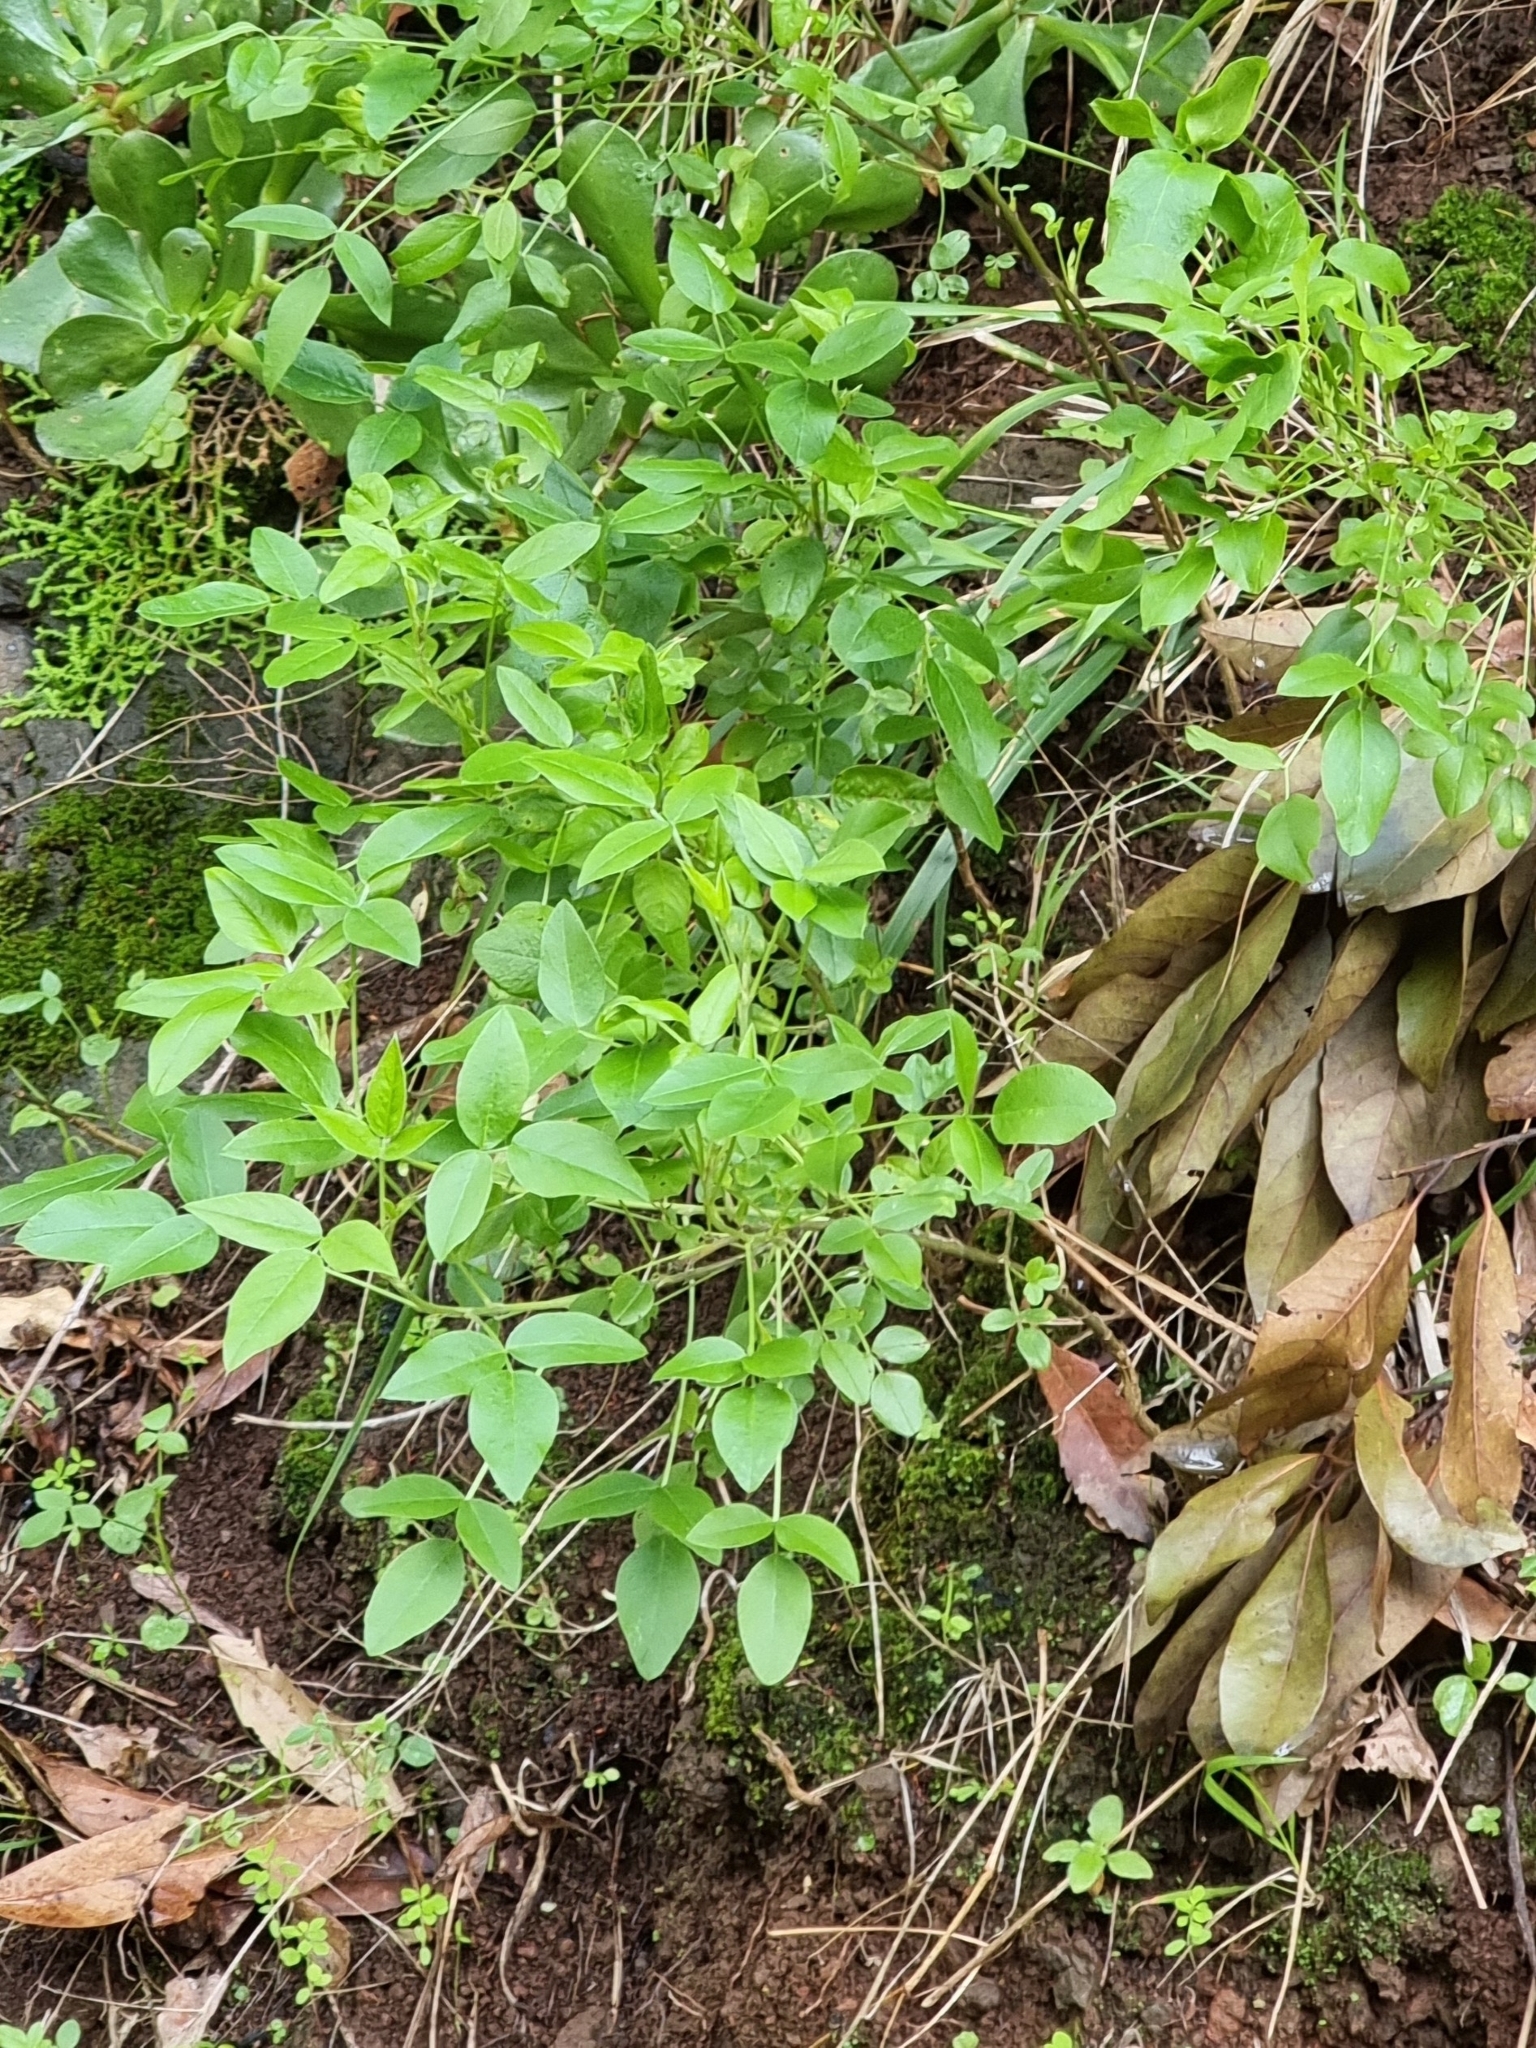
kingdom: Plantae
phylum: Tracheophyta
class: Magnoliopsida
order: Fabales
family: Fabaceae
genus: Bituminaria
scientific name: Bituminaria bituminosa
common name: Arabian pea
